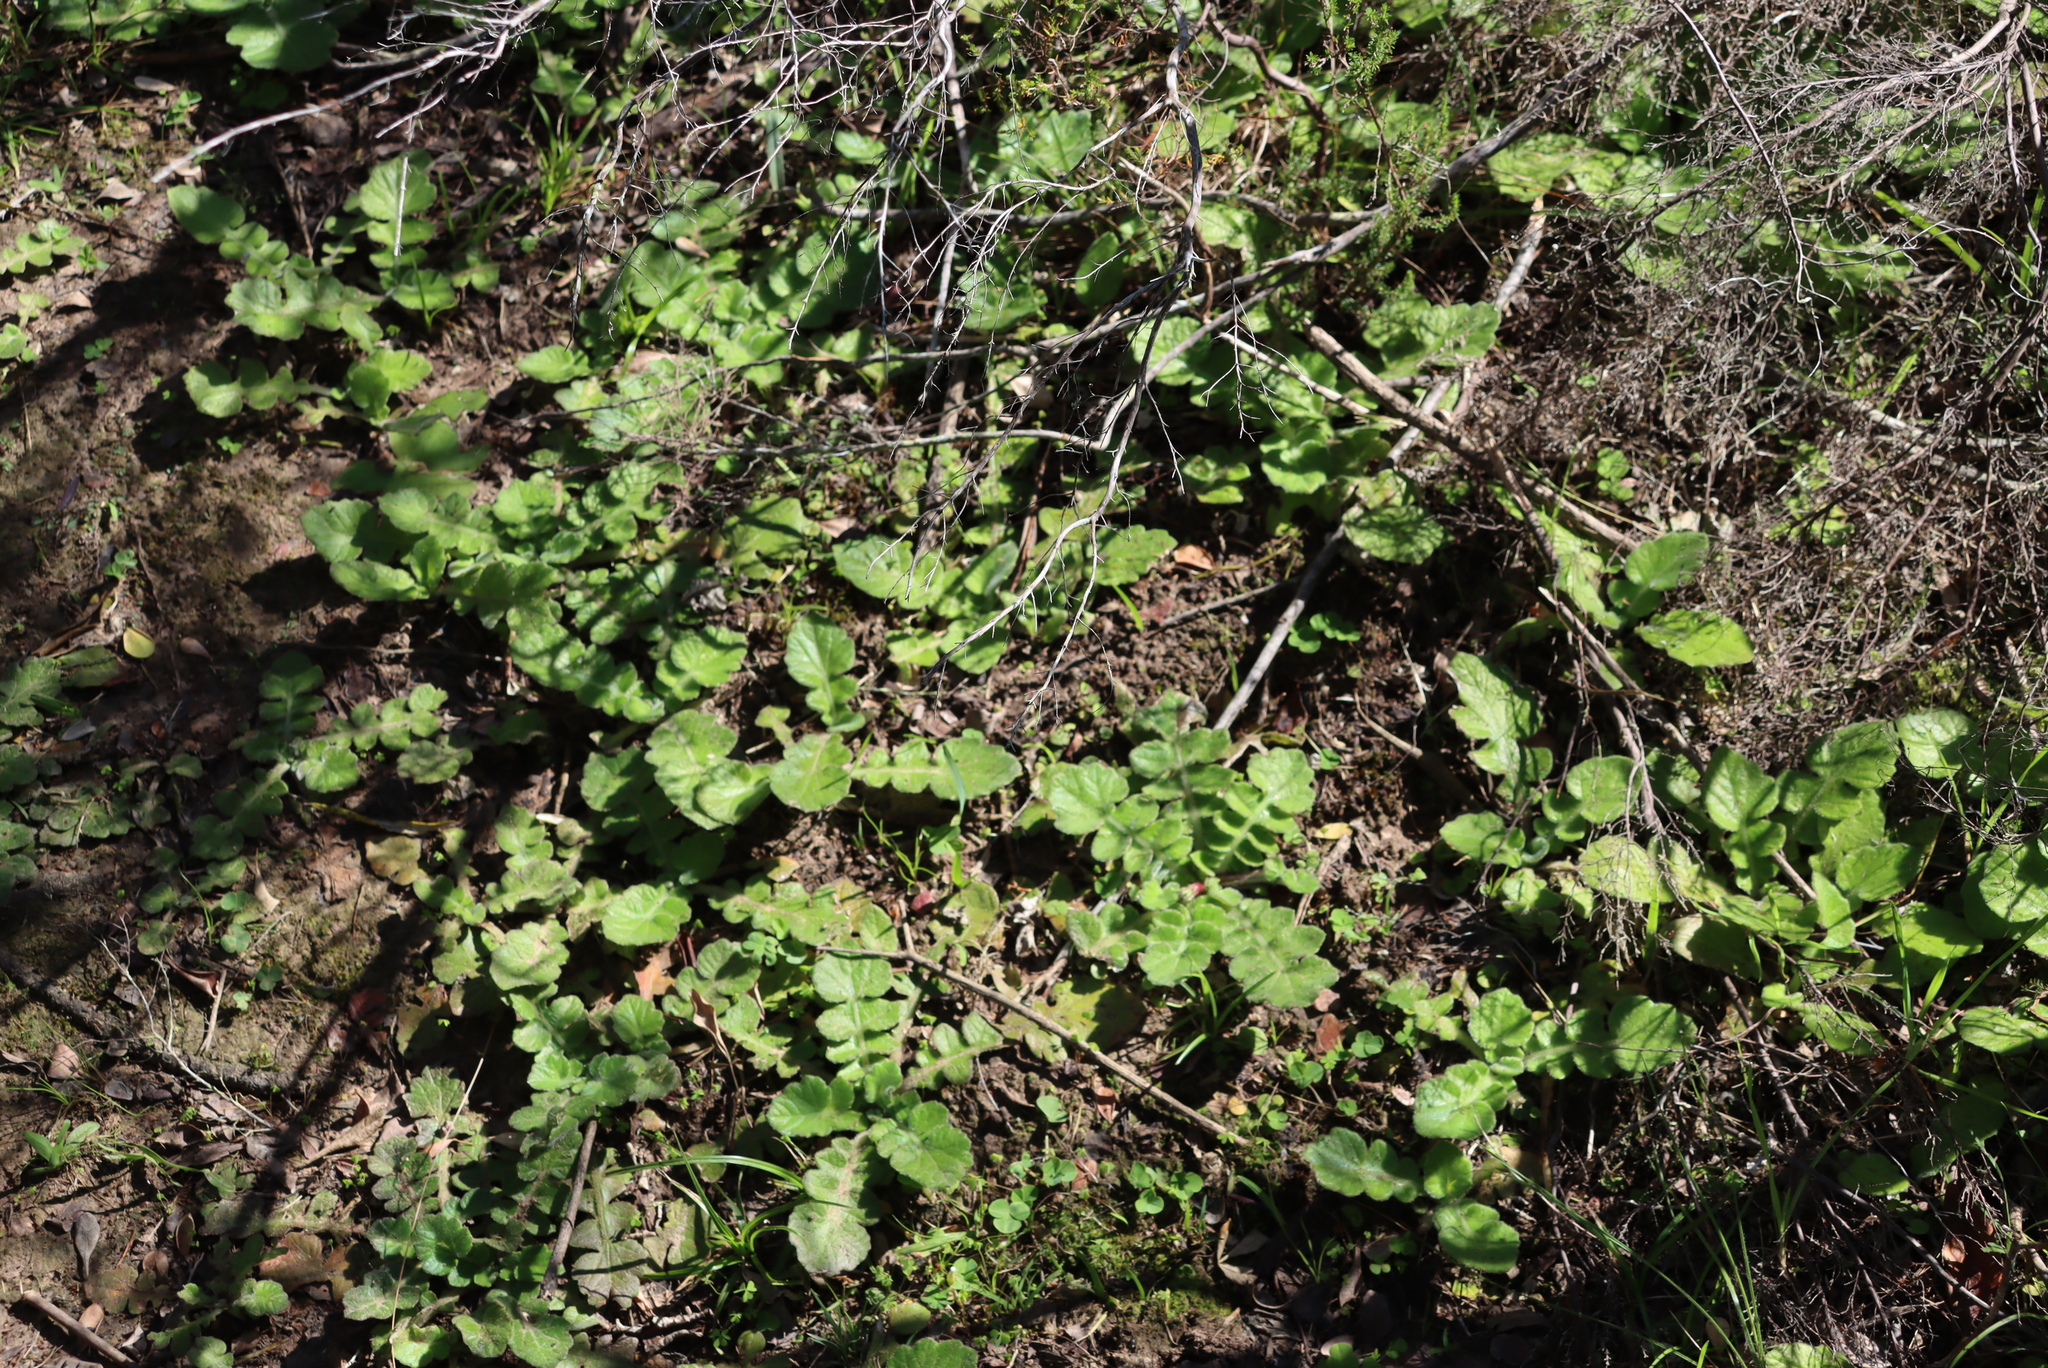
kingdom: Plantae
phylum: Tracheophyta
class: Magnoliopsida
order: Asterales
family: Asteraceae
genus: Arctotheca
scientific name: Arctotheca prostrata
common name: Capeweed
